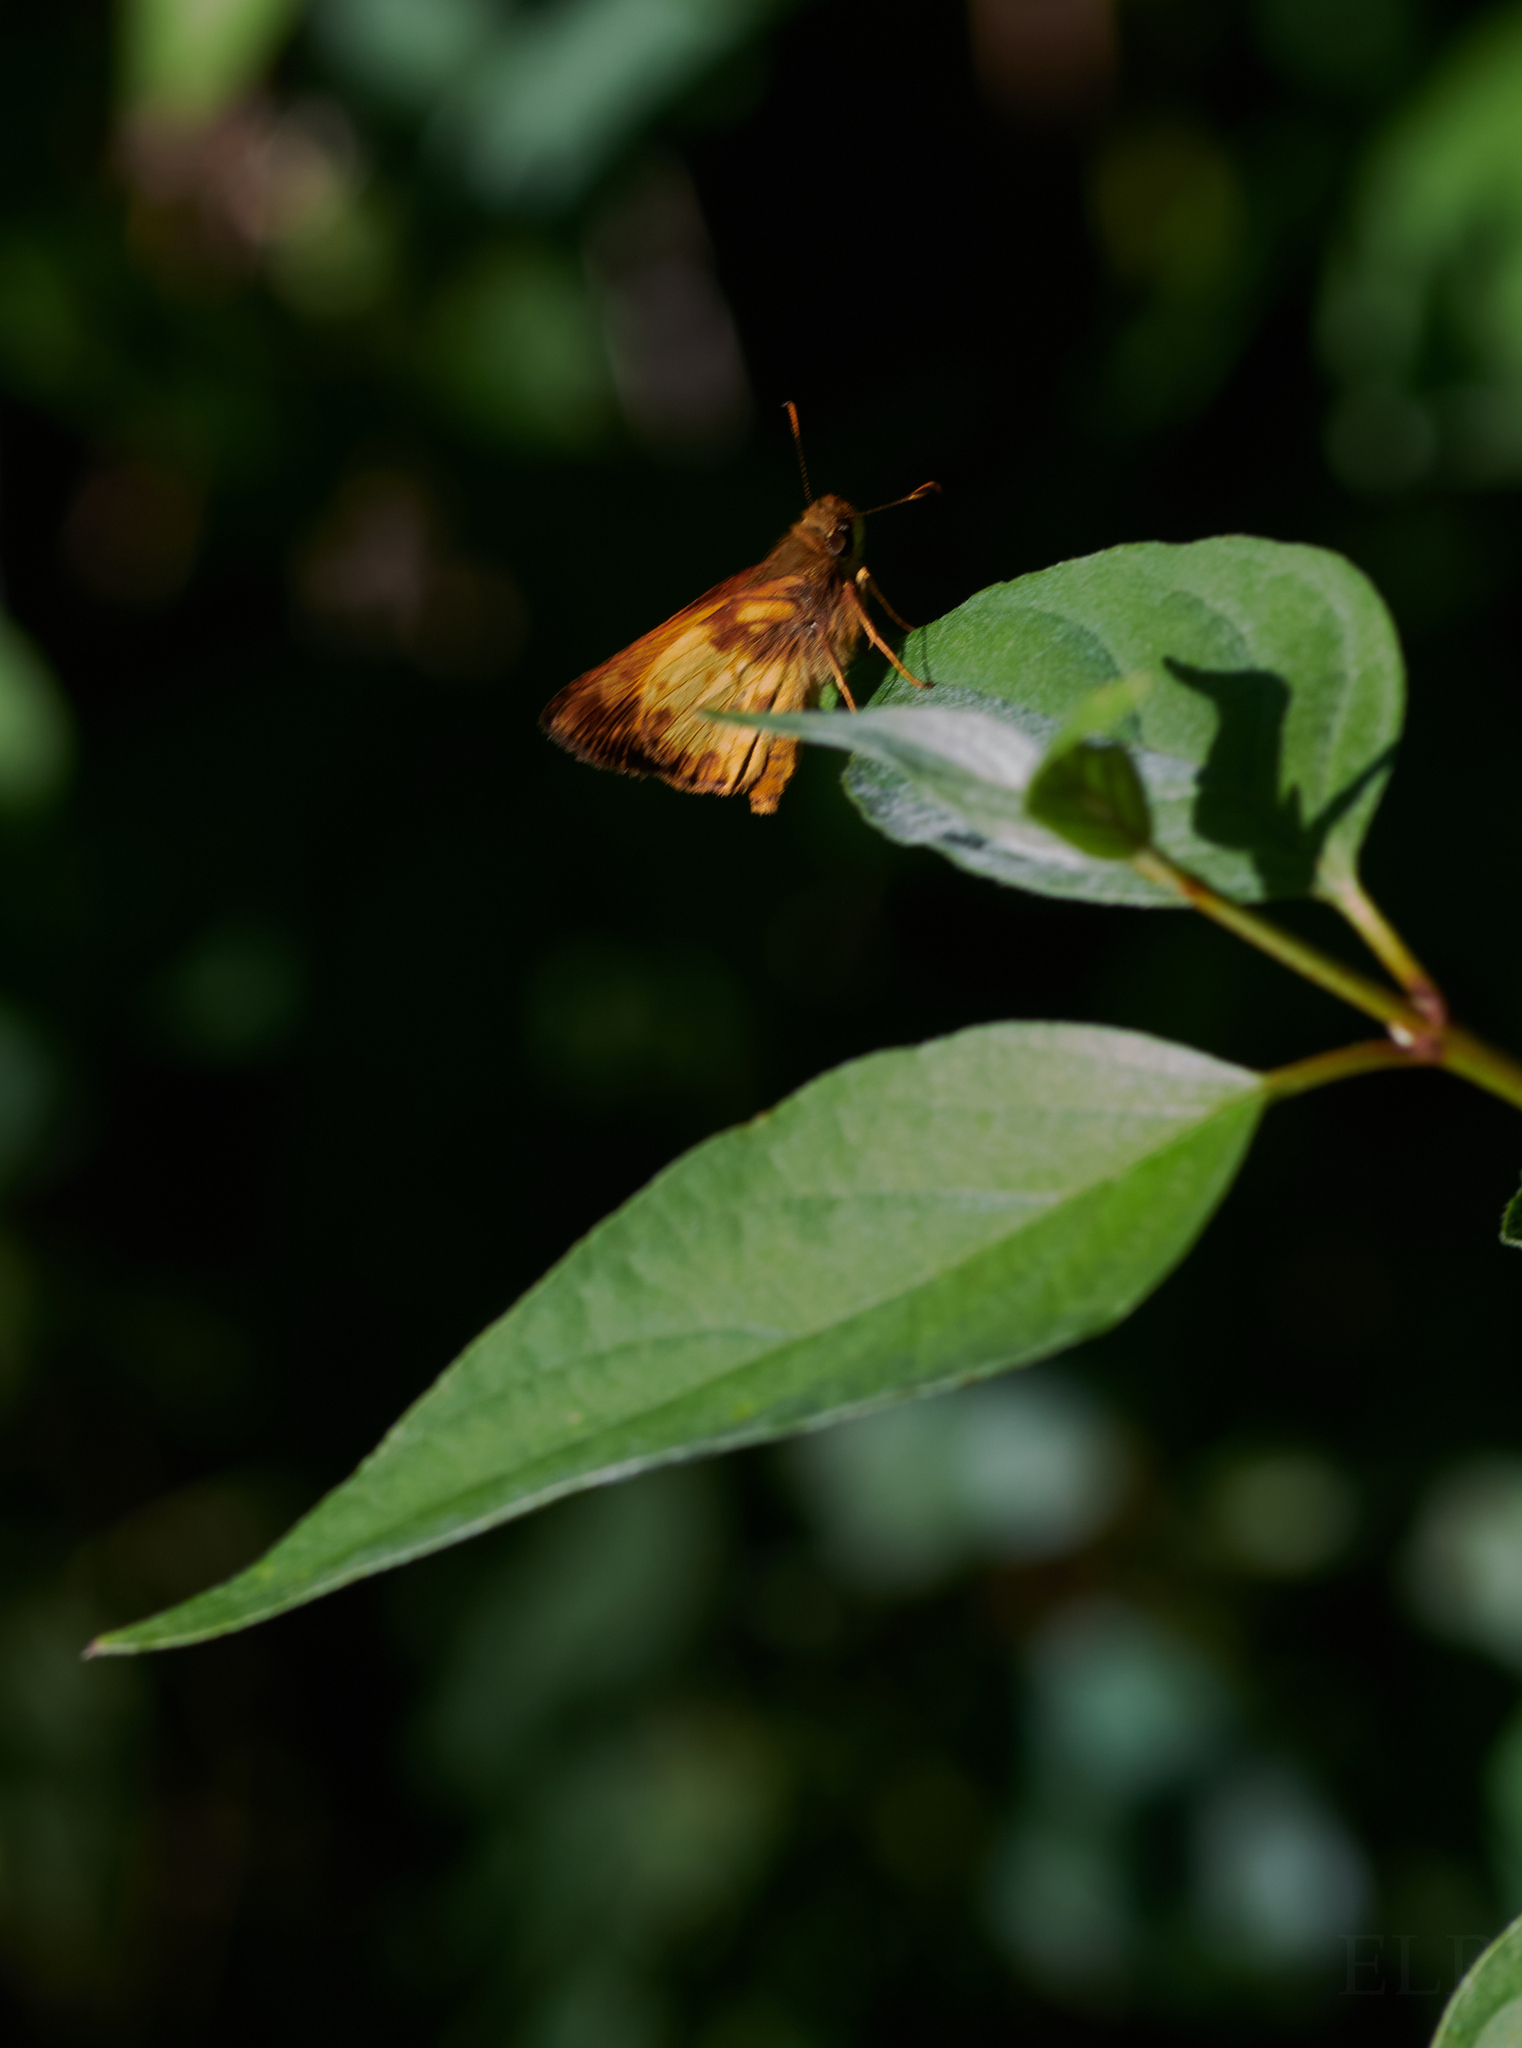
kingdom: Animalia
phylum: Arthropoda
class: Insecta
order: Lepidoptera
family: Hesperiidae
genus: Lon
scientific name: Lon zabulon
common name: Zabulon skipper
